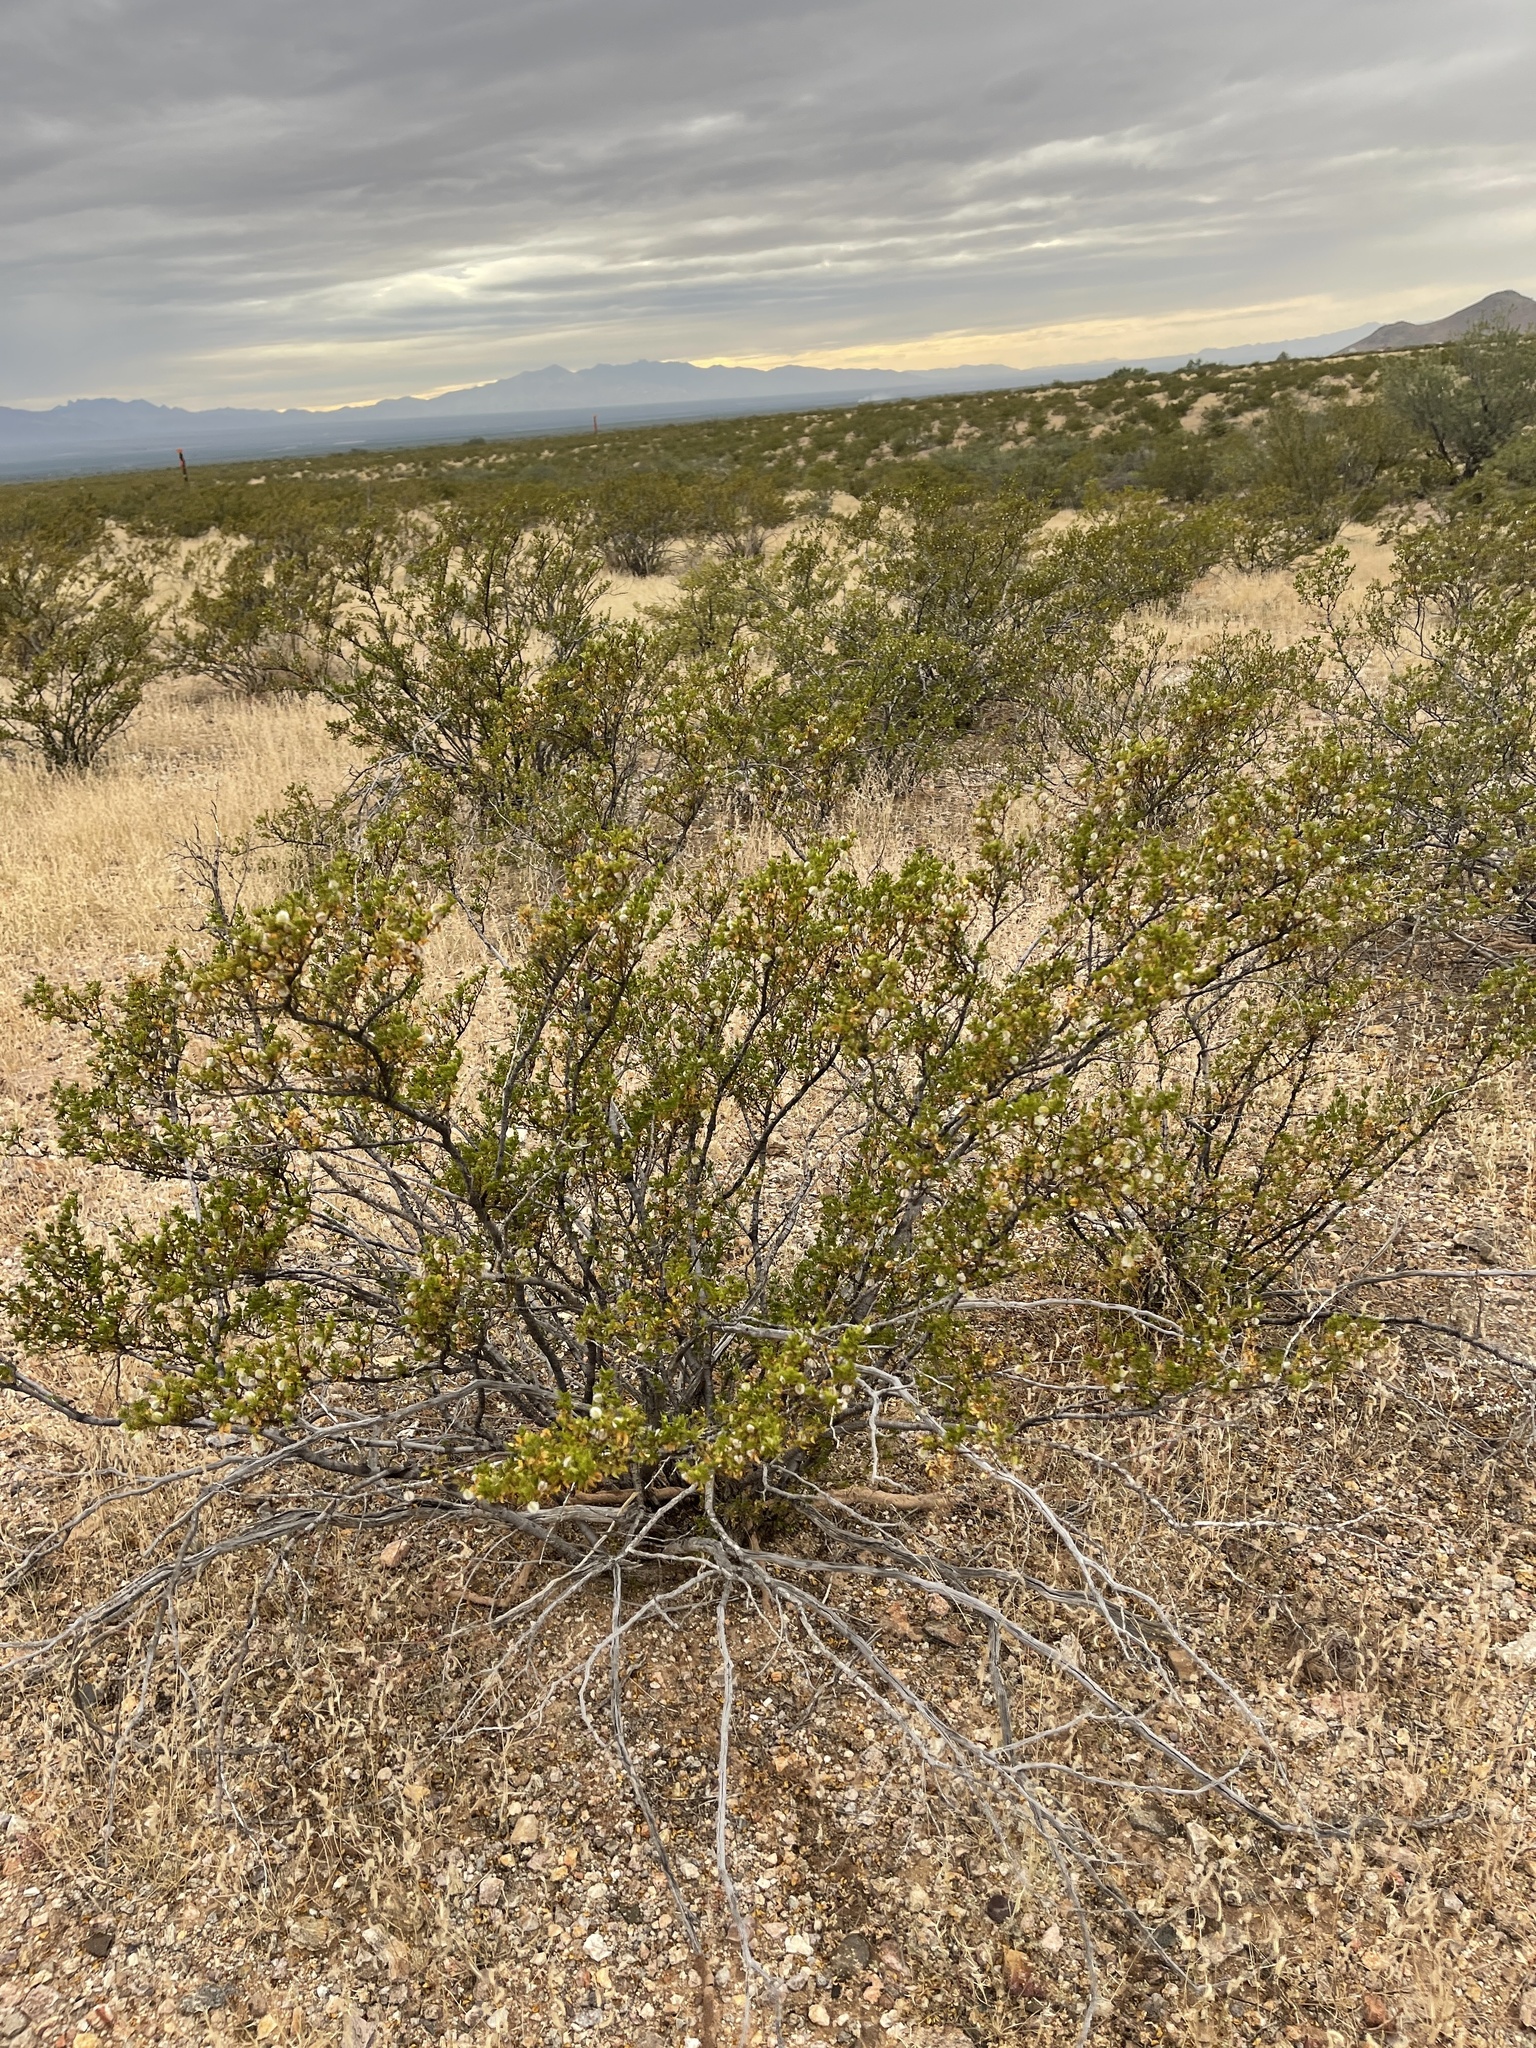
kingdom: Plantae
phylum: Tracheophyta
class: Magnoliopsida
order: Zygophyllales
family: Zygophyllaceae
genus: Larrea
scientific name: Larrea tridentata
